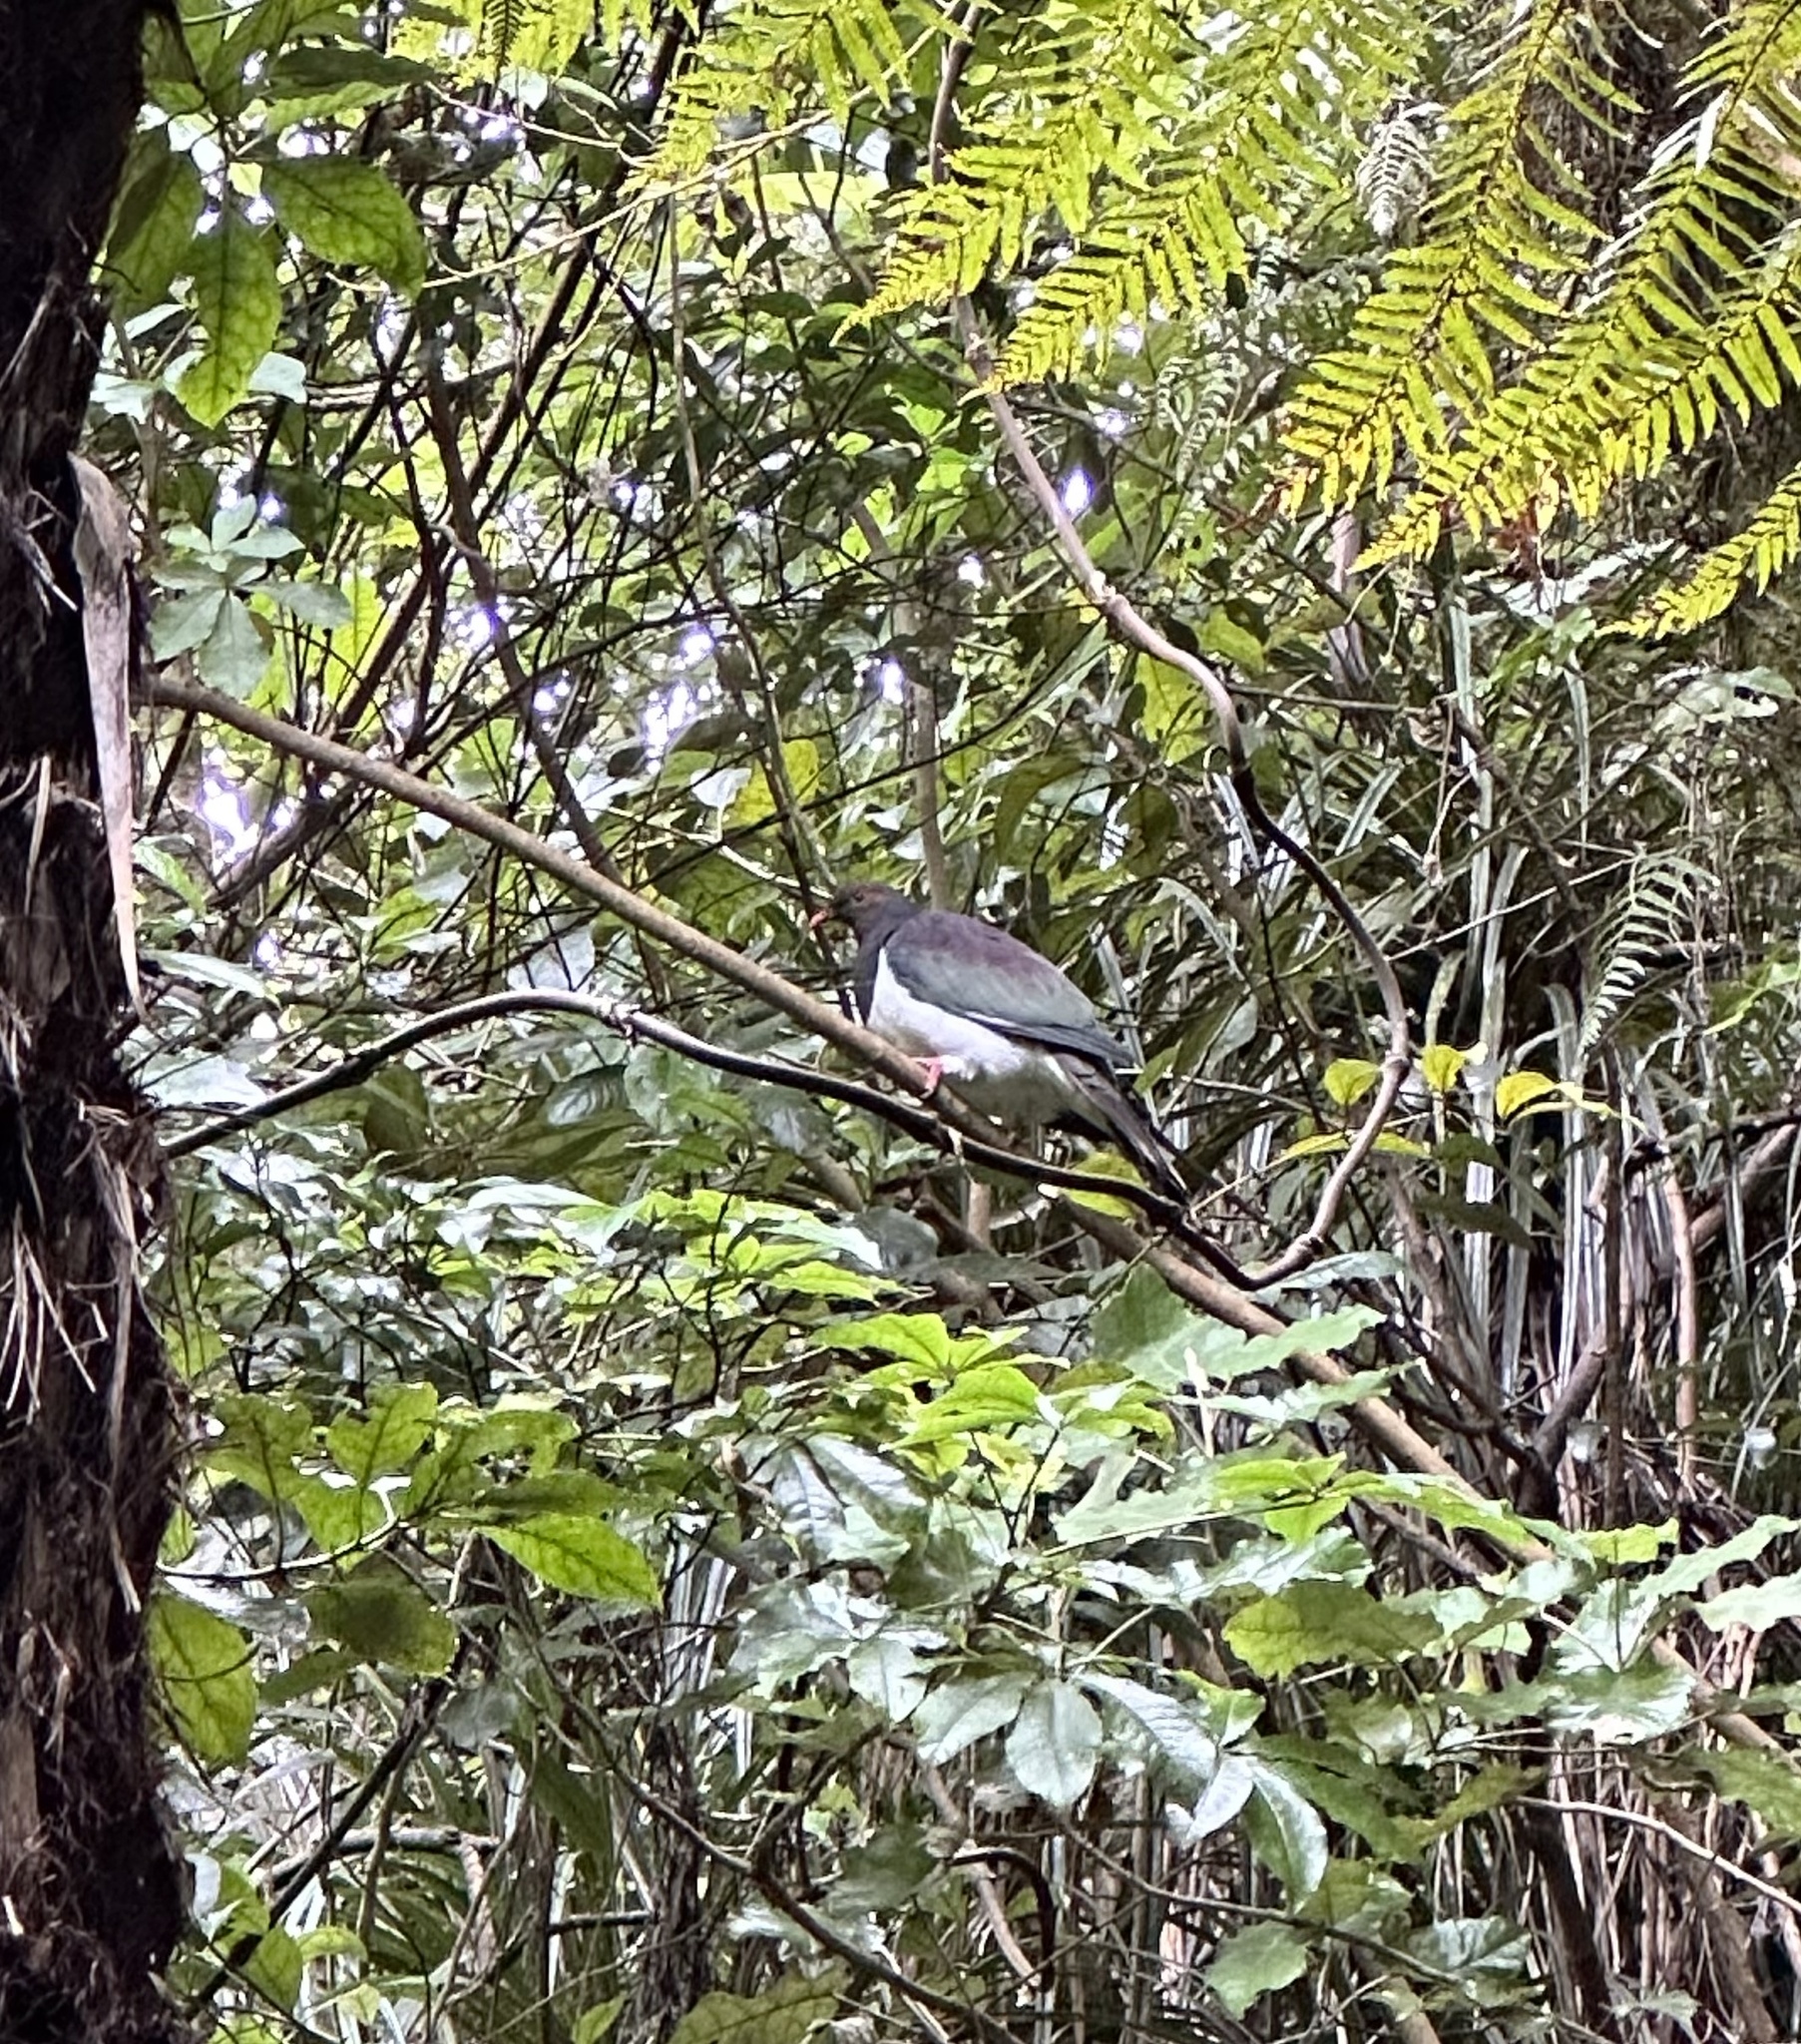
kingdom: Animalia
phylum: Chordata
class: Aves
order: Columbiformes
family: Columbidae
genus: Hemiphaga
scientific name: Hemiphaga novaeseelandiae
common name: New zealand pigeon
